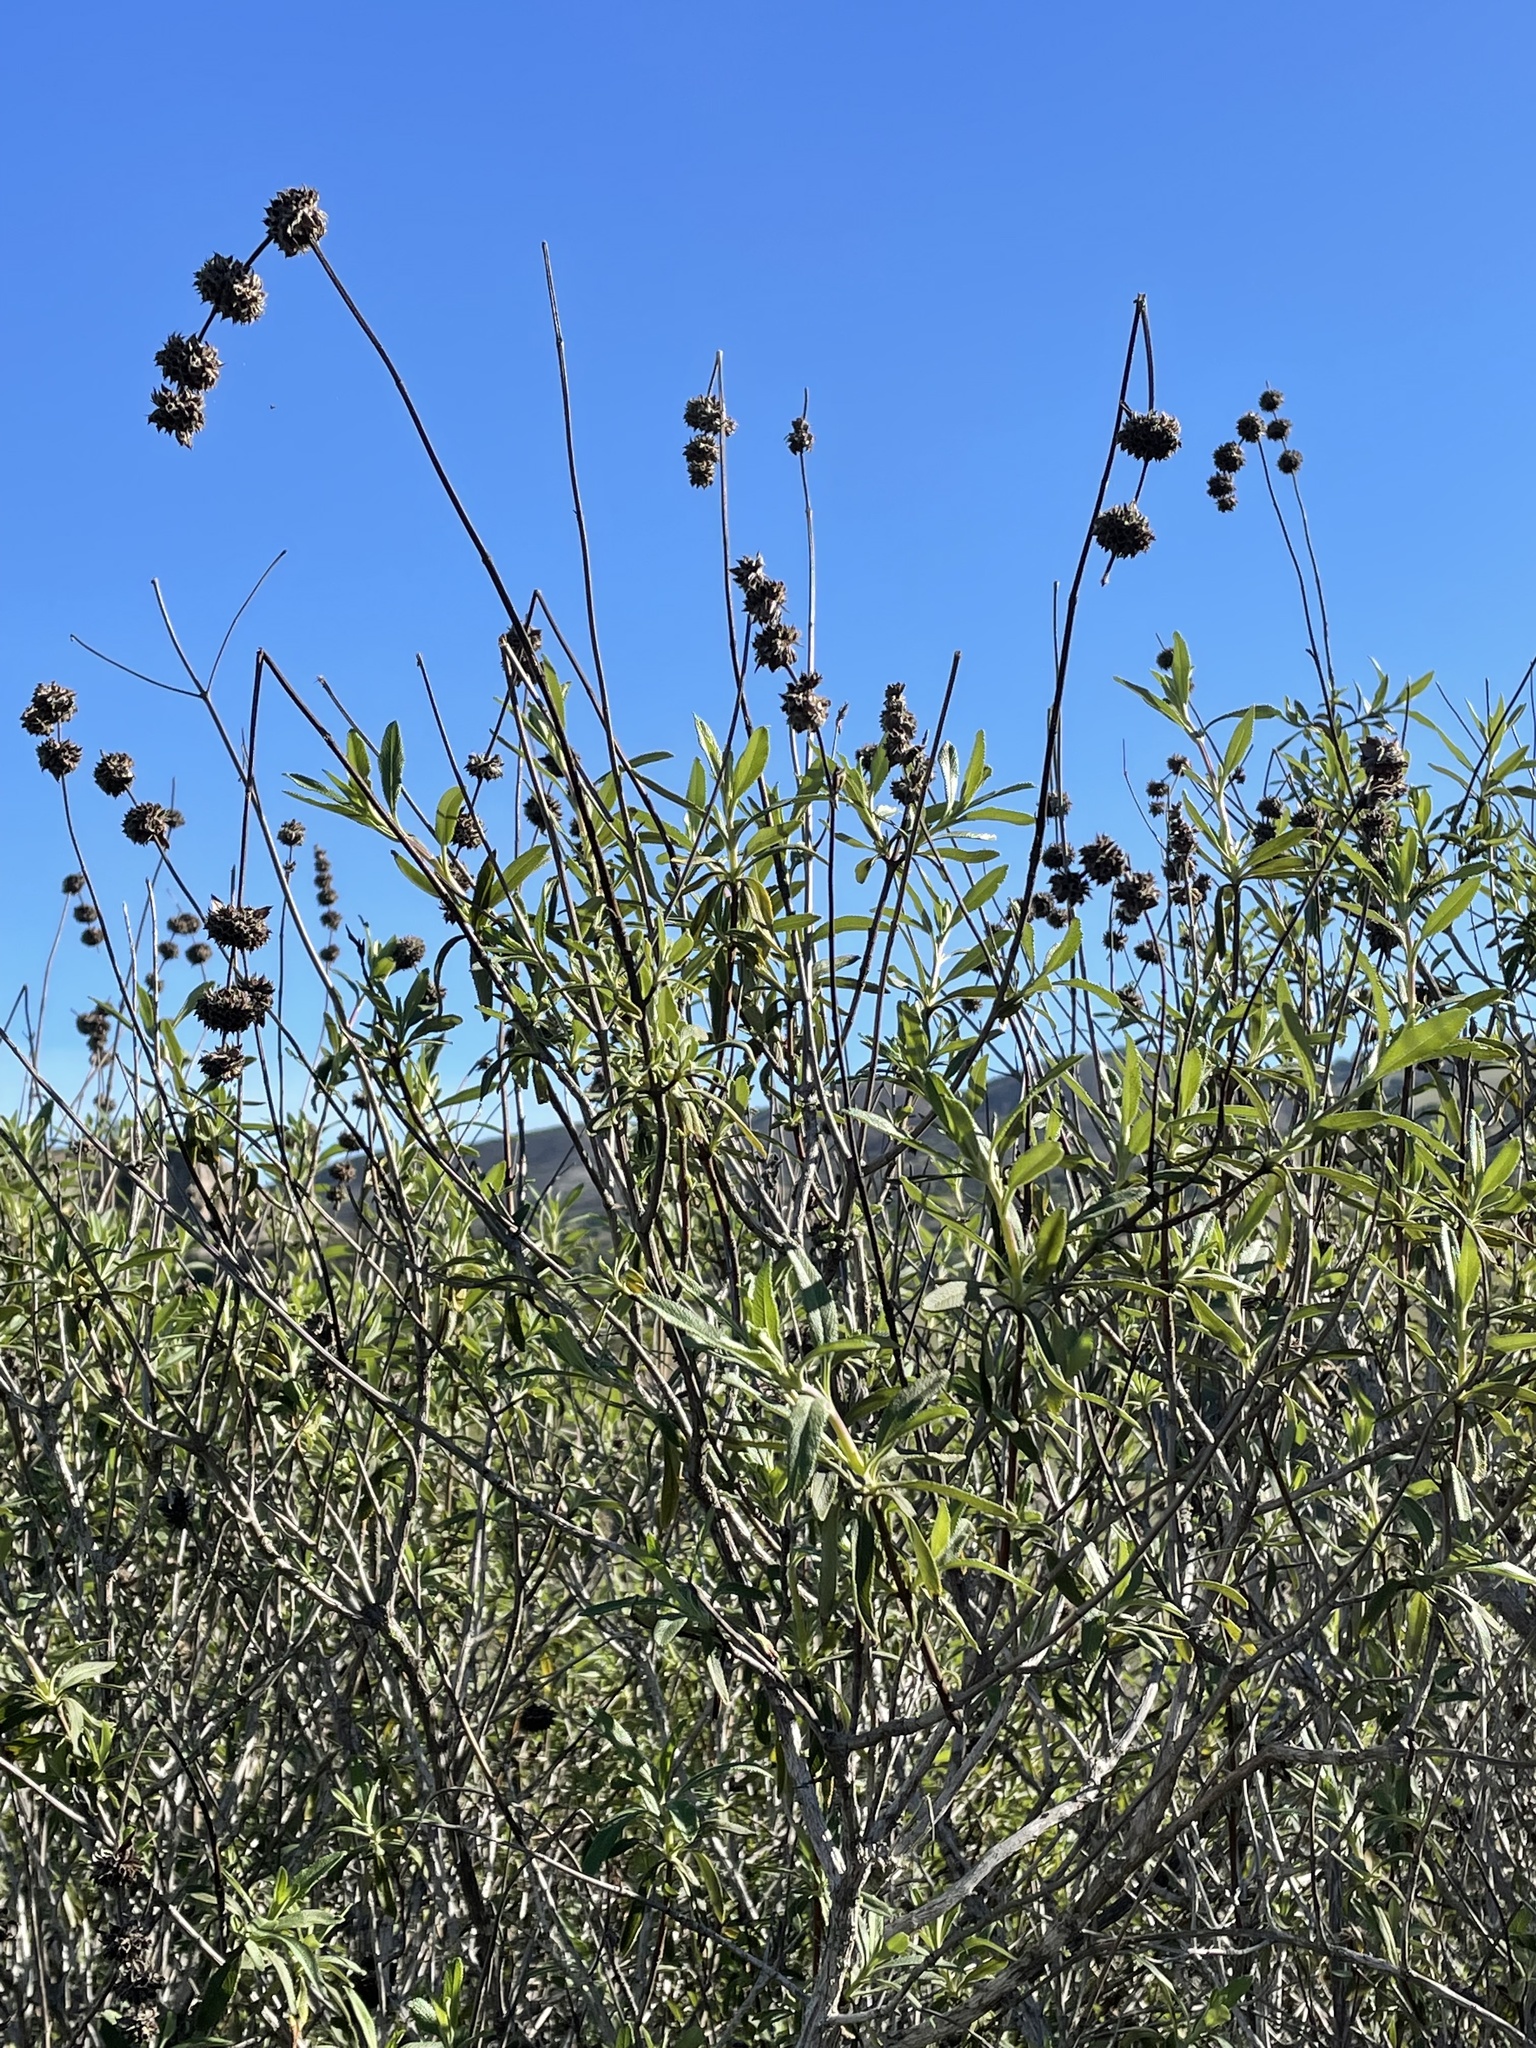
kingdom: Plantae
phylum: Tracheophyta
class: Magnoliopsida
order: Lamiales
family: Lamiaceae
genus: Salvia
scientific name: Salvia mellifera
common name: Black sage
